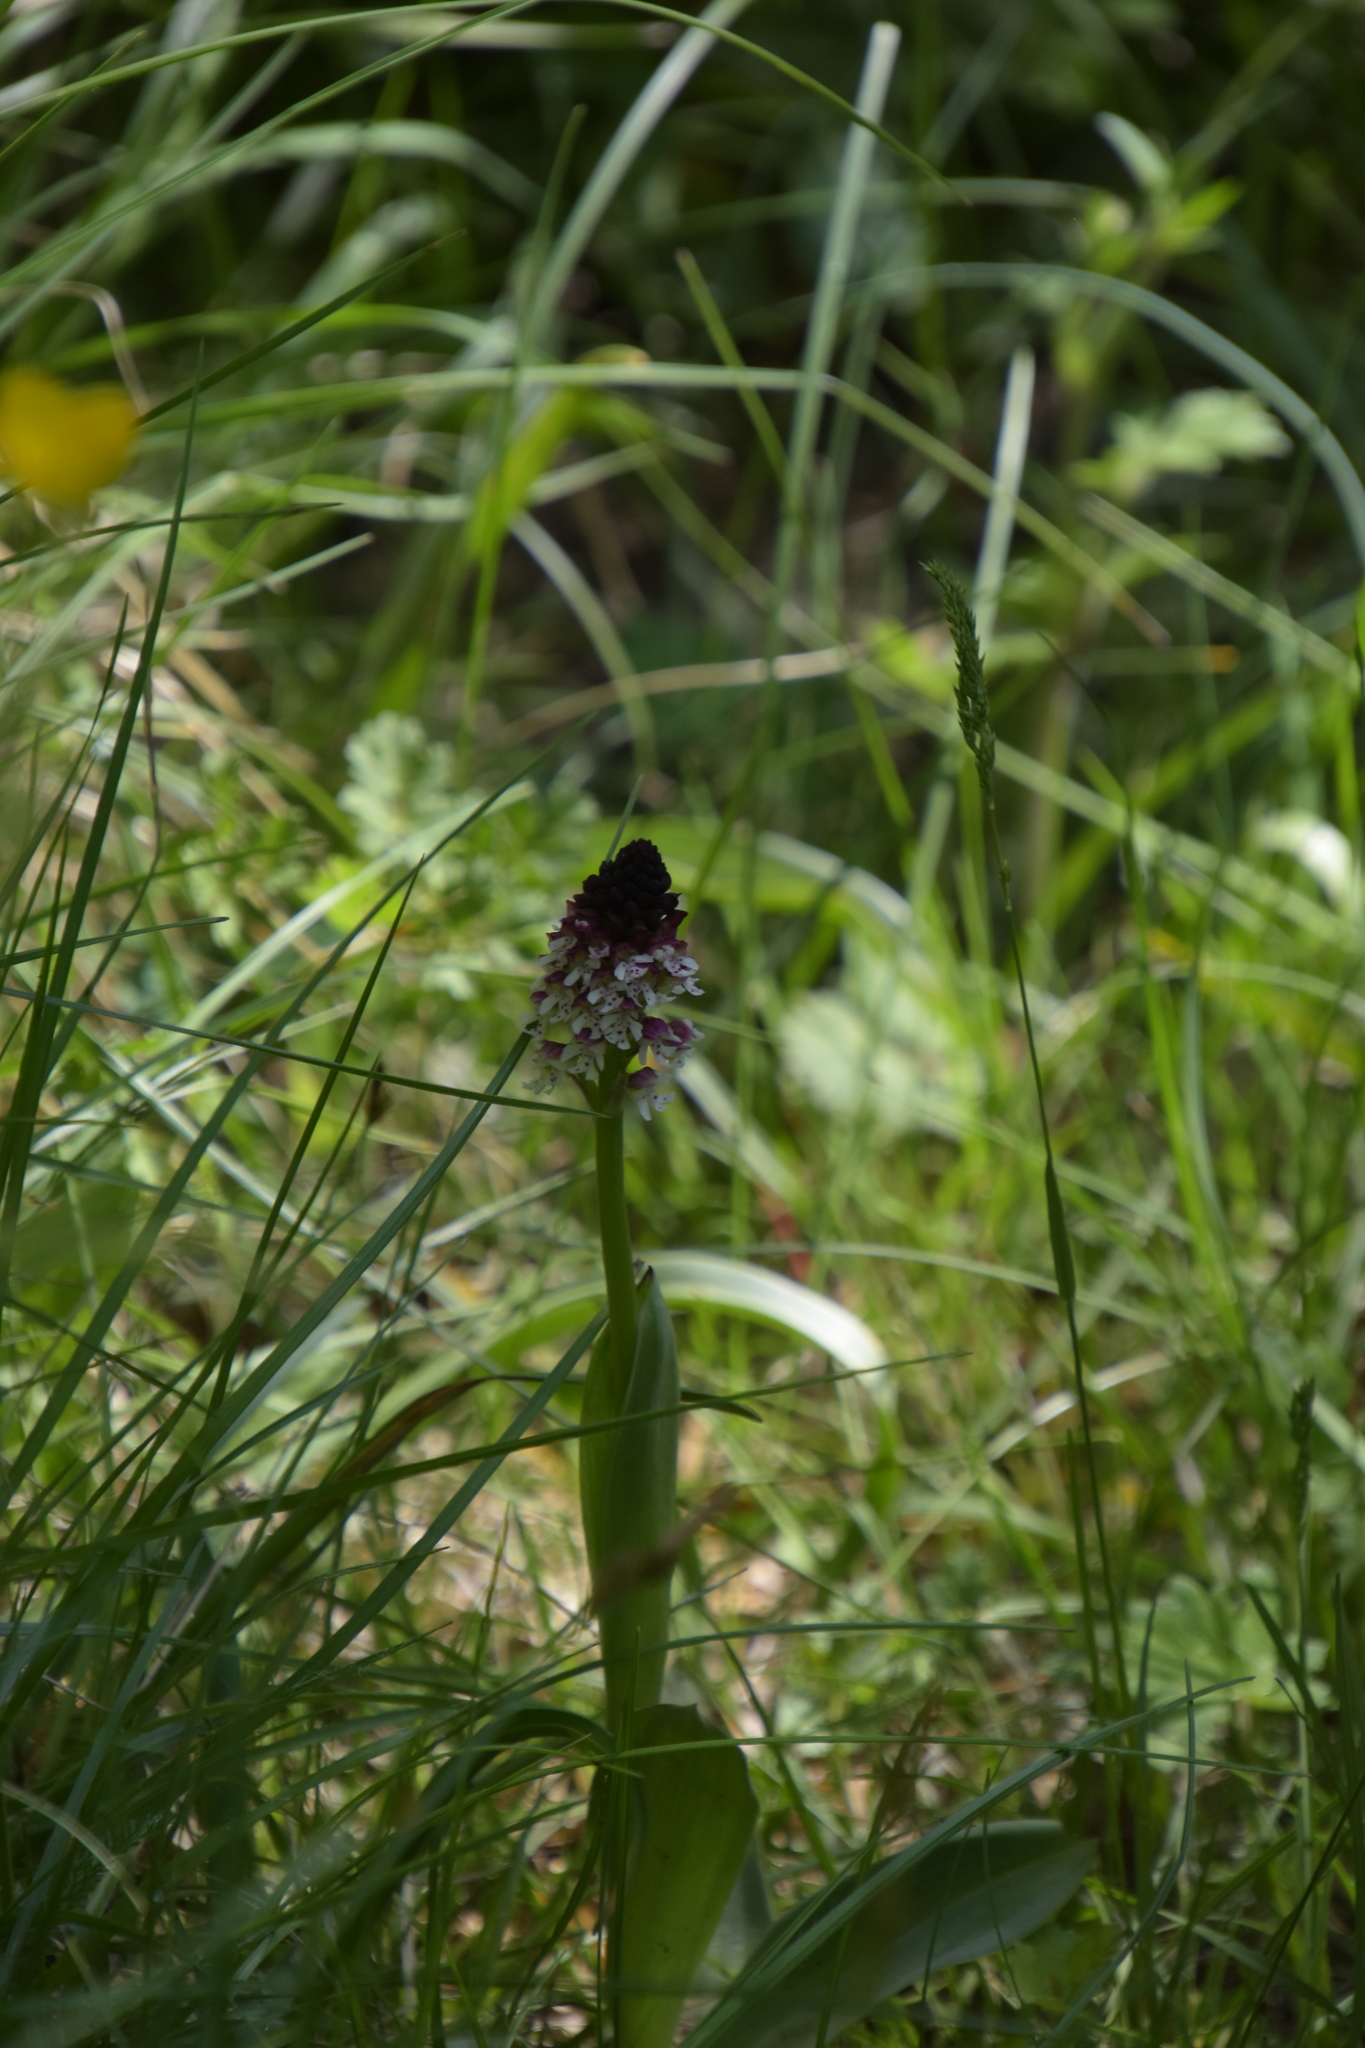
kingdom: Plantae
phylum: Tracheophyta
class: Liliopsida
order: Asparagales
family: Orchidaceae
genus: Neotinea
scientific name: Neotinea ustulata
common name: Burnt orchid
